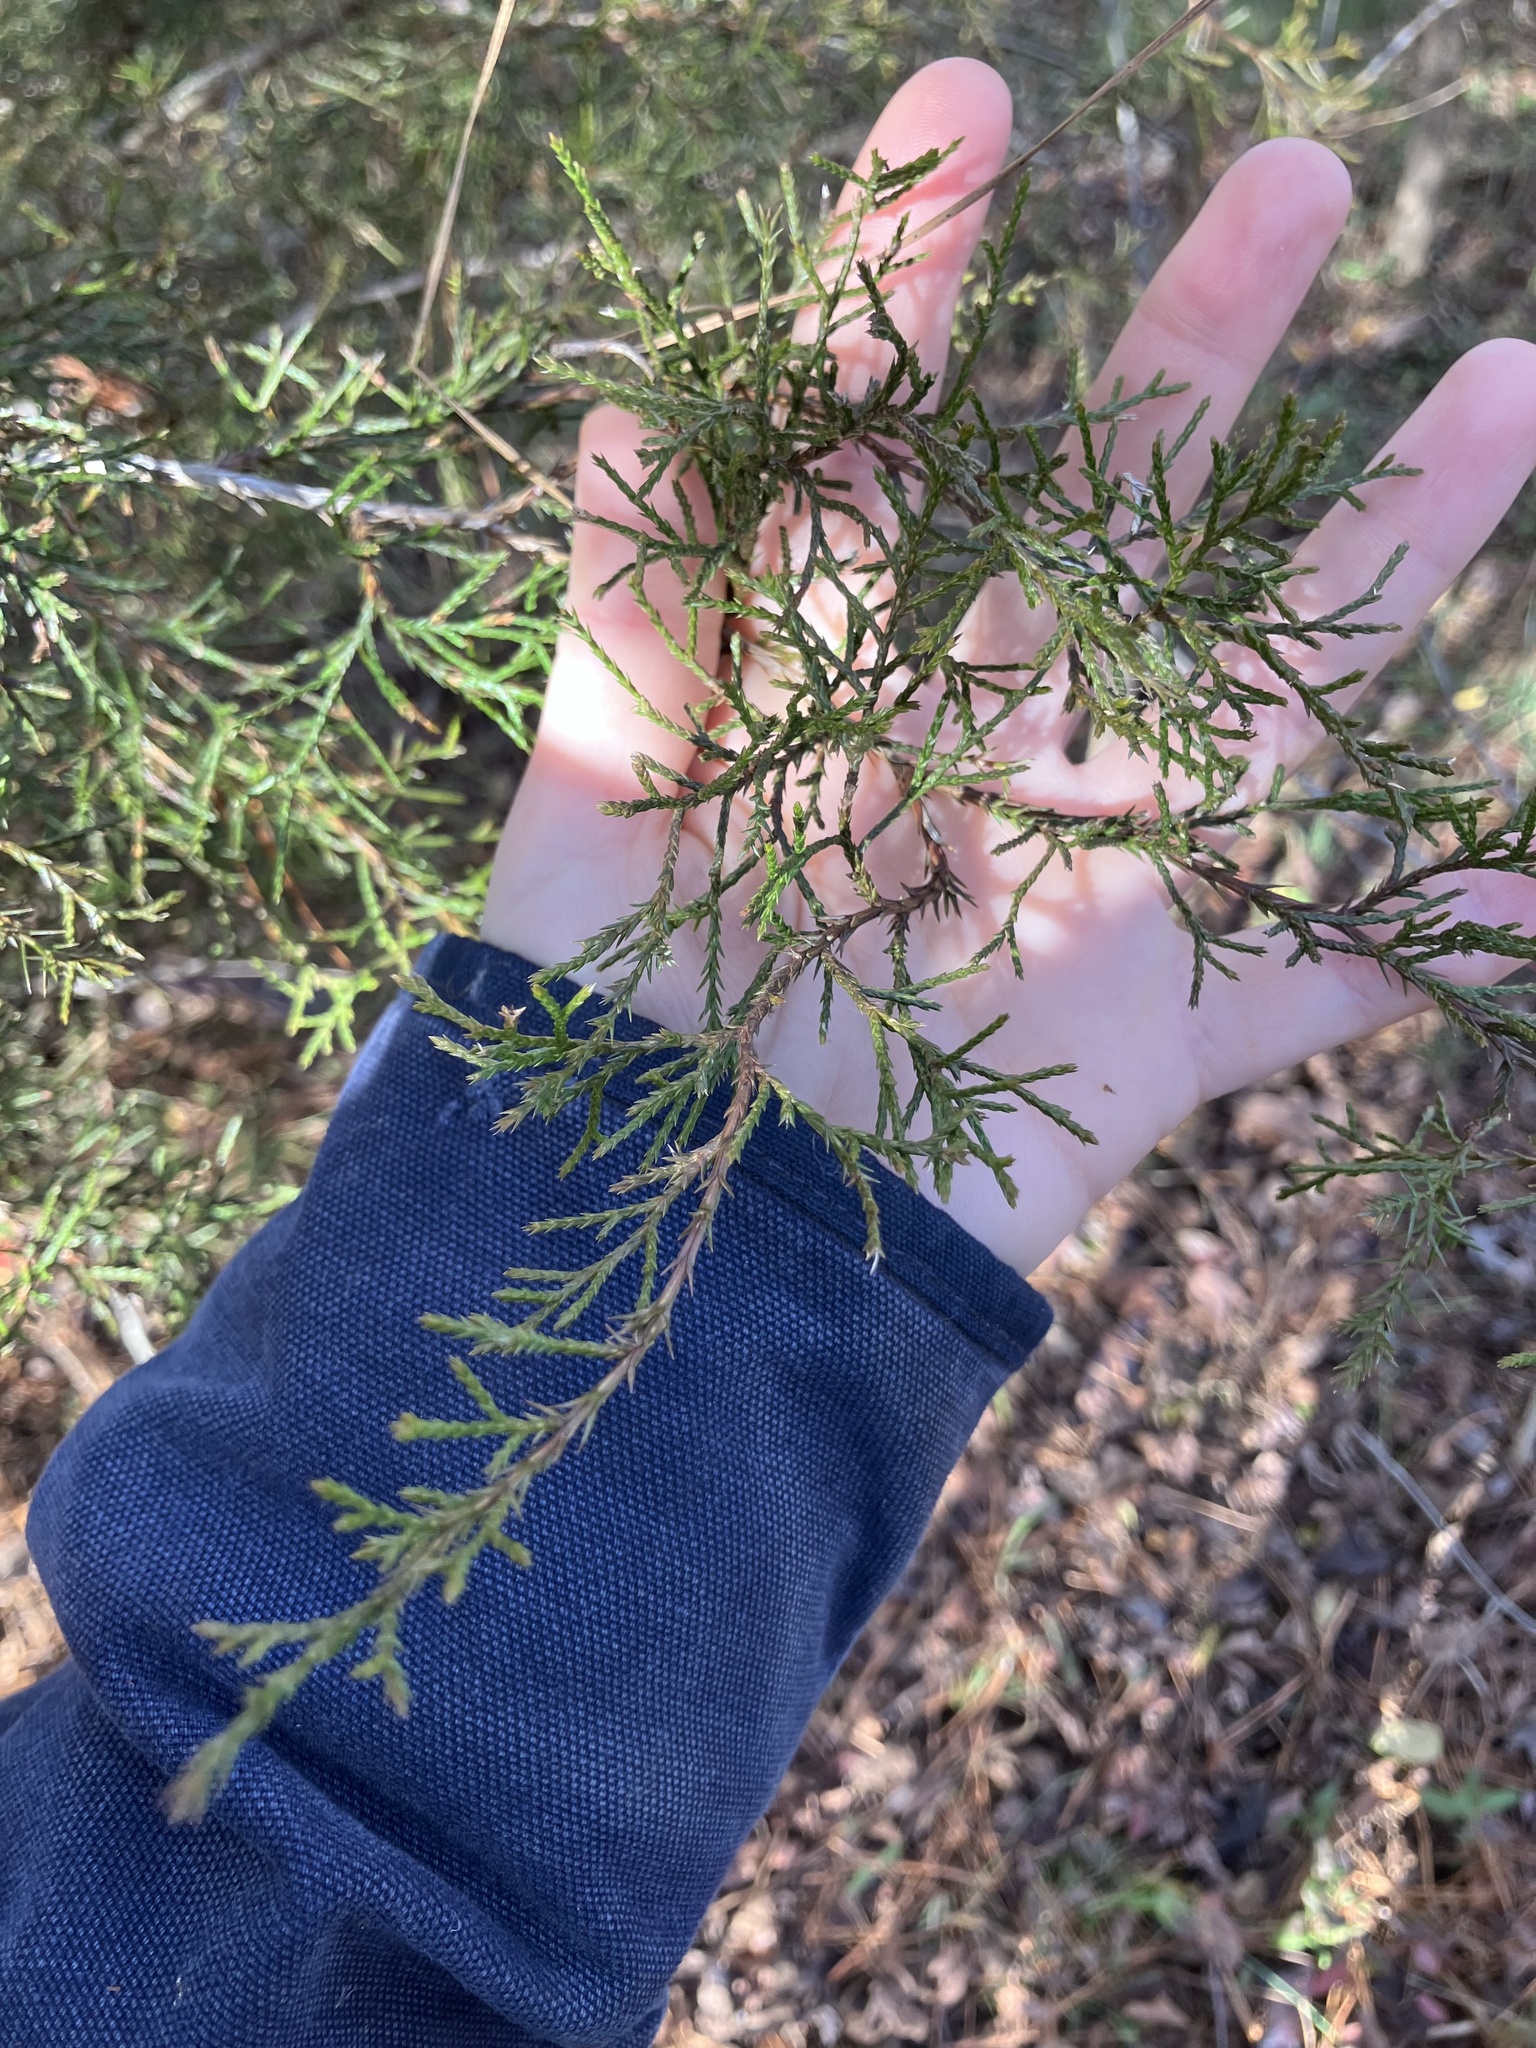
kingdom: Plantae
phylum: Tracheophyta
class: Pinopsida
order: Pinales
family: Cupressaceae
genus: Juniperus
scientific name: Juniperus virginiana
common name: Red juniper
